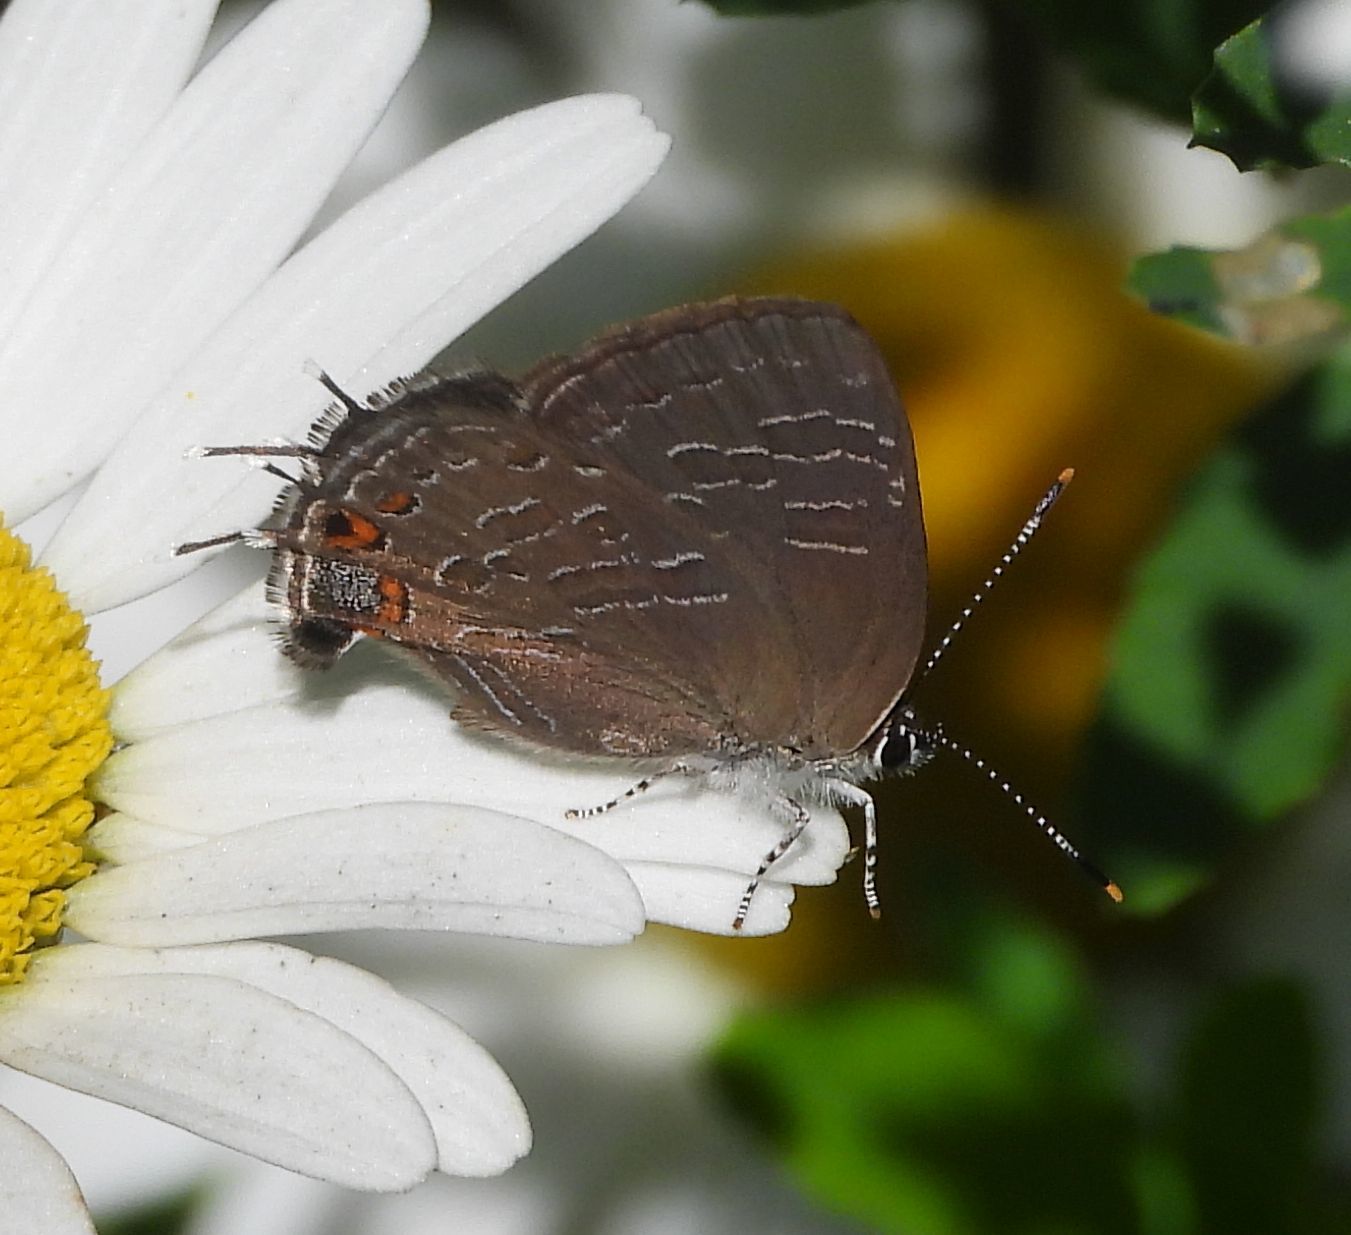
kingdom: Animalia
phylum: Arthropoda
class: Insecta
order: Lepidoptera
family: Lycaenidae
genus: Satyrium
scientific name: Satyrium liparops
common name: Striped hairstreak
